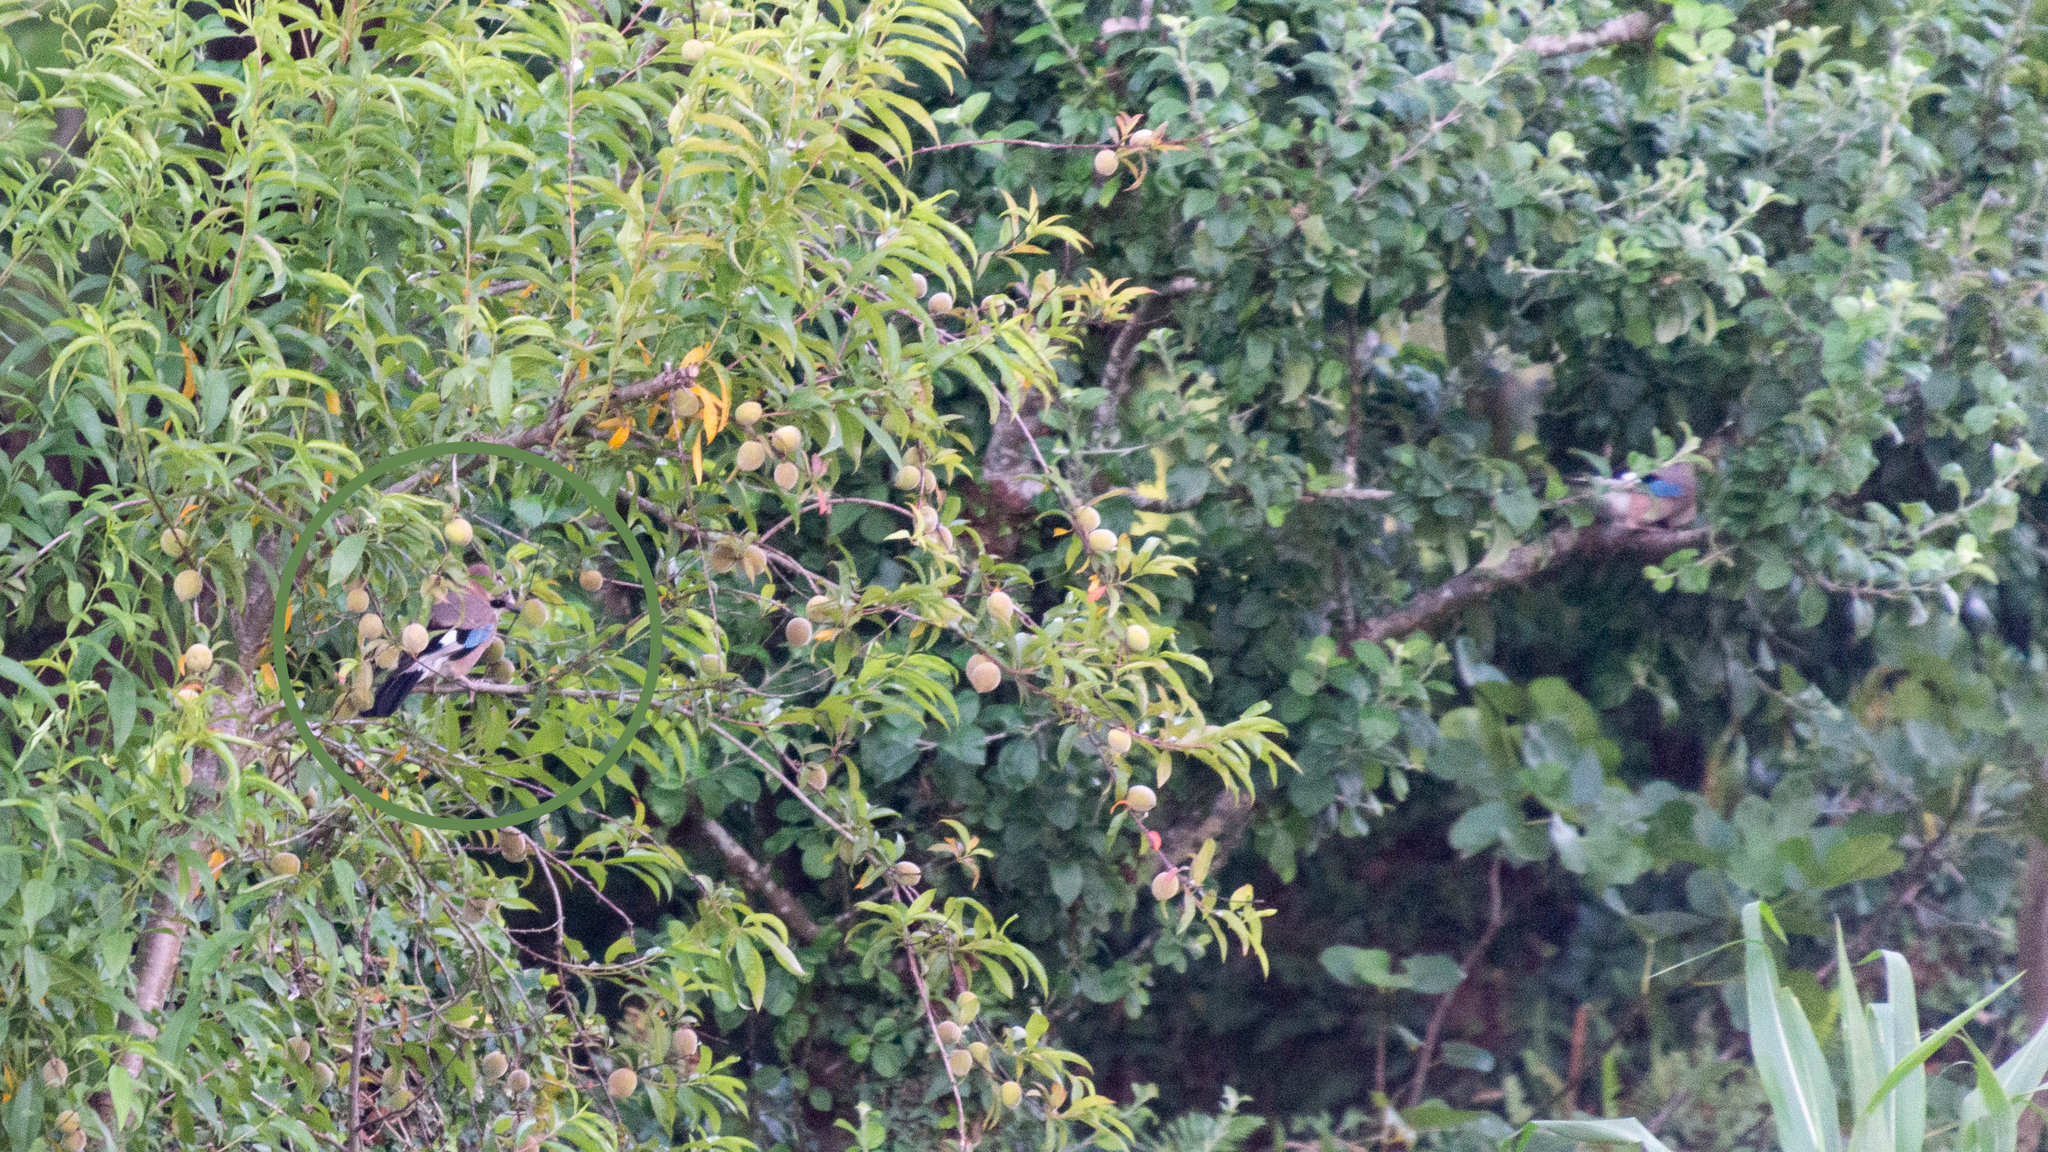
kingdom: Animalia
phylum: Chordata
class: Aves
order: Passeriformes
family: Corvidae
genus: Garrulus
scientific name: Garrulus glandarius
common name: Eurasian jay
